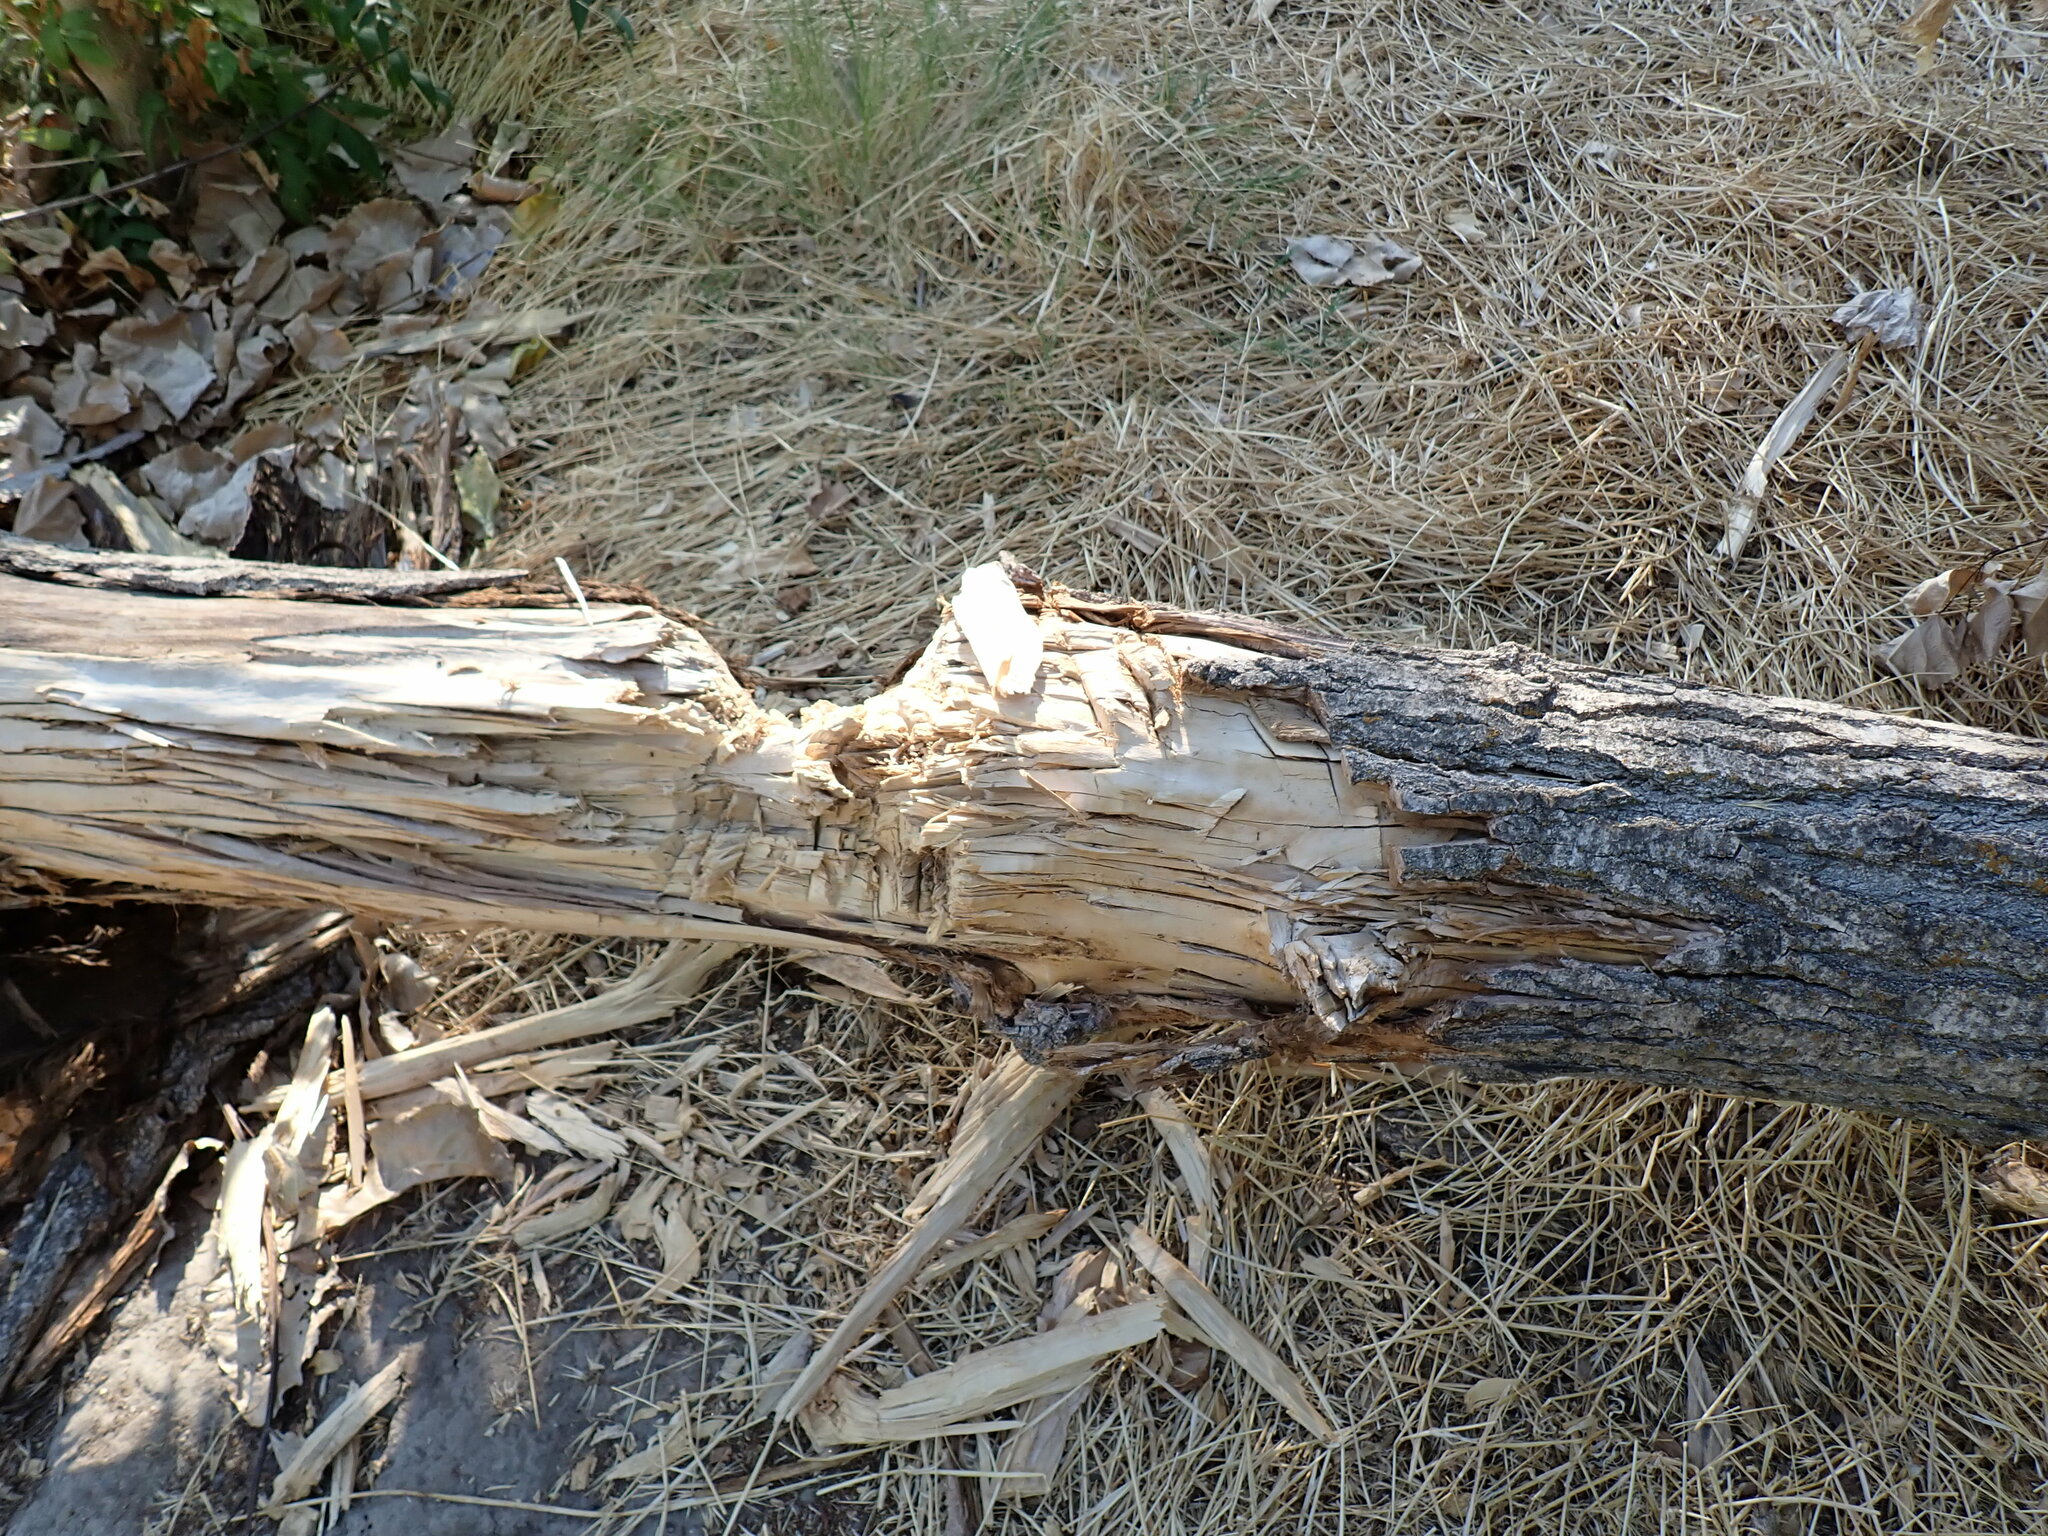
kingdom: Animalia
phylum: Chordata
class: Mammalia
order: Rodentia
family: Castoridae
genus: Castor
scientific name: Castor canadensis
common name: American beaver
